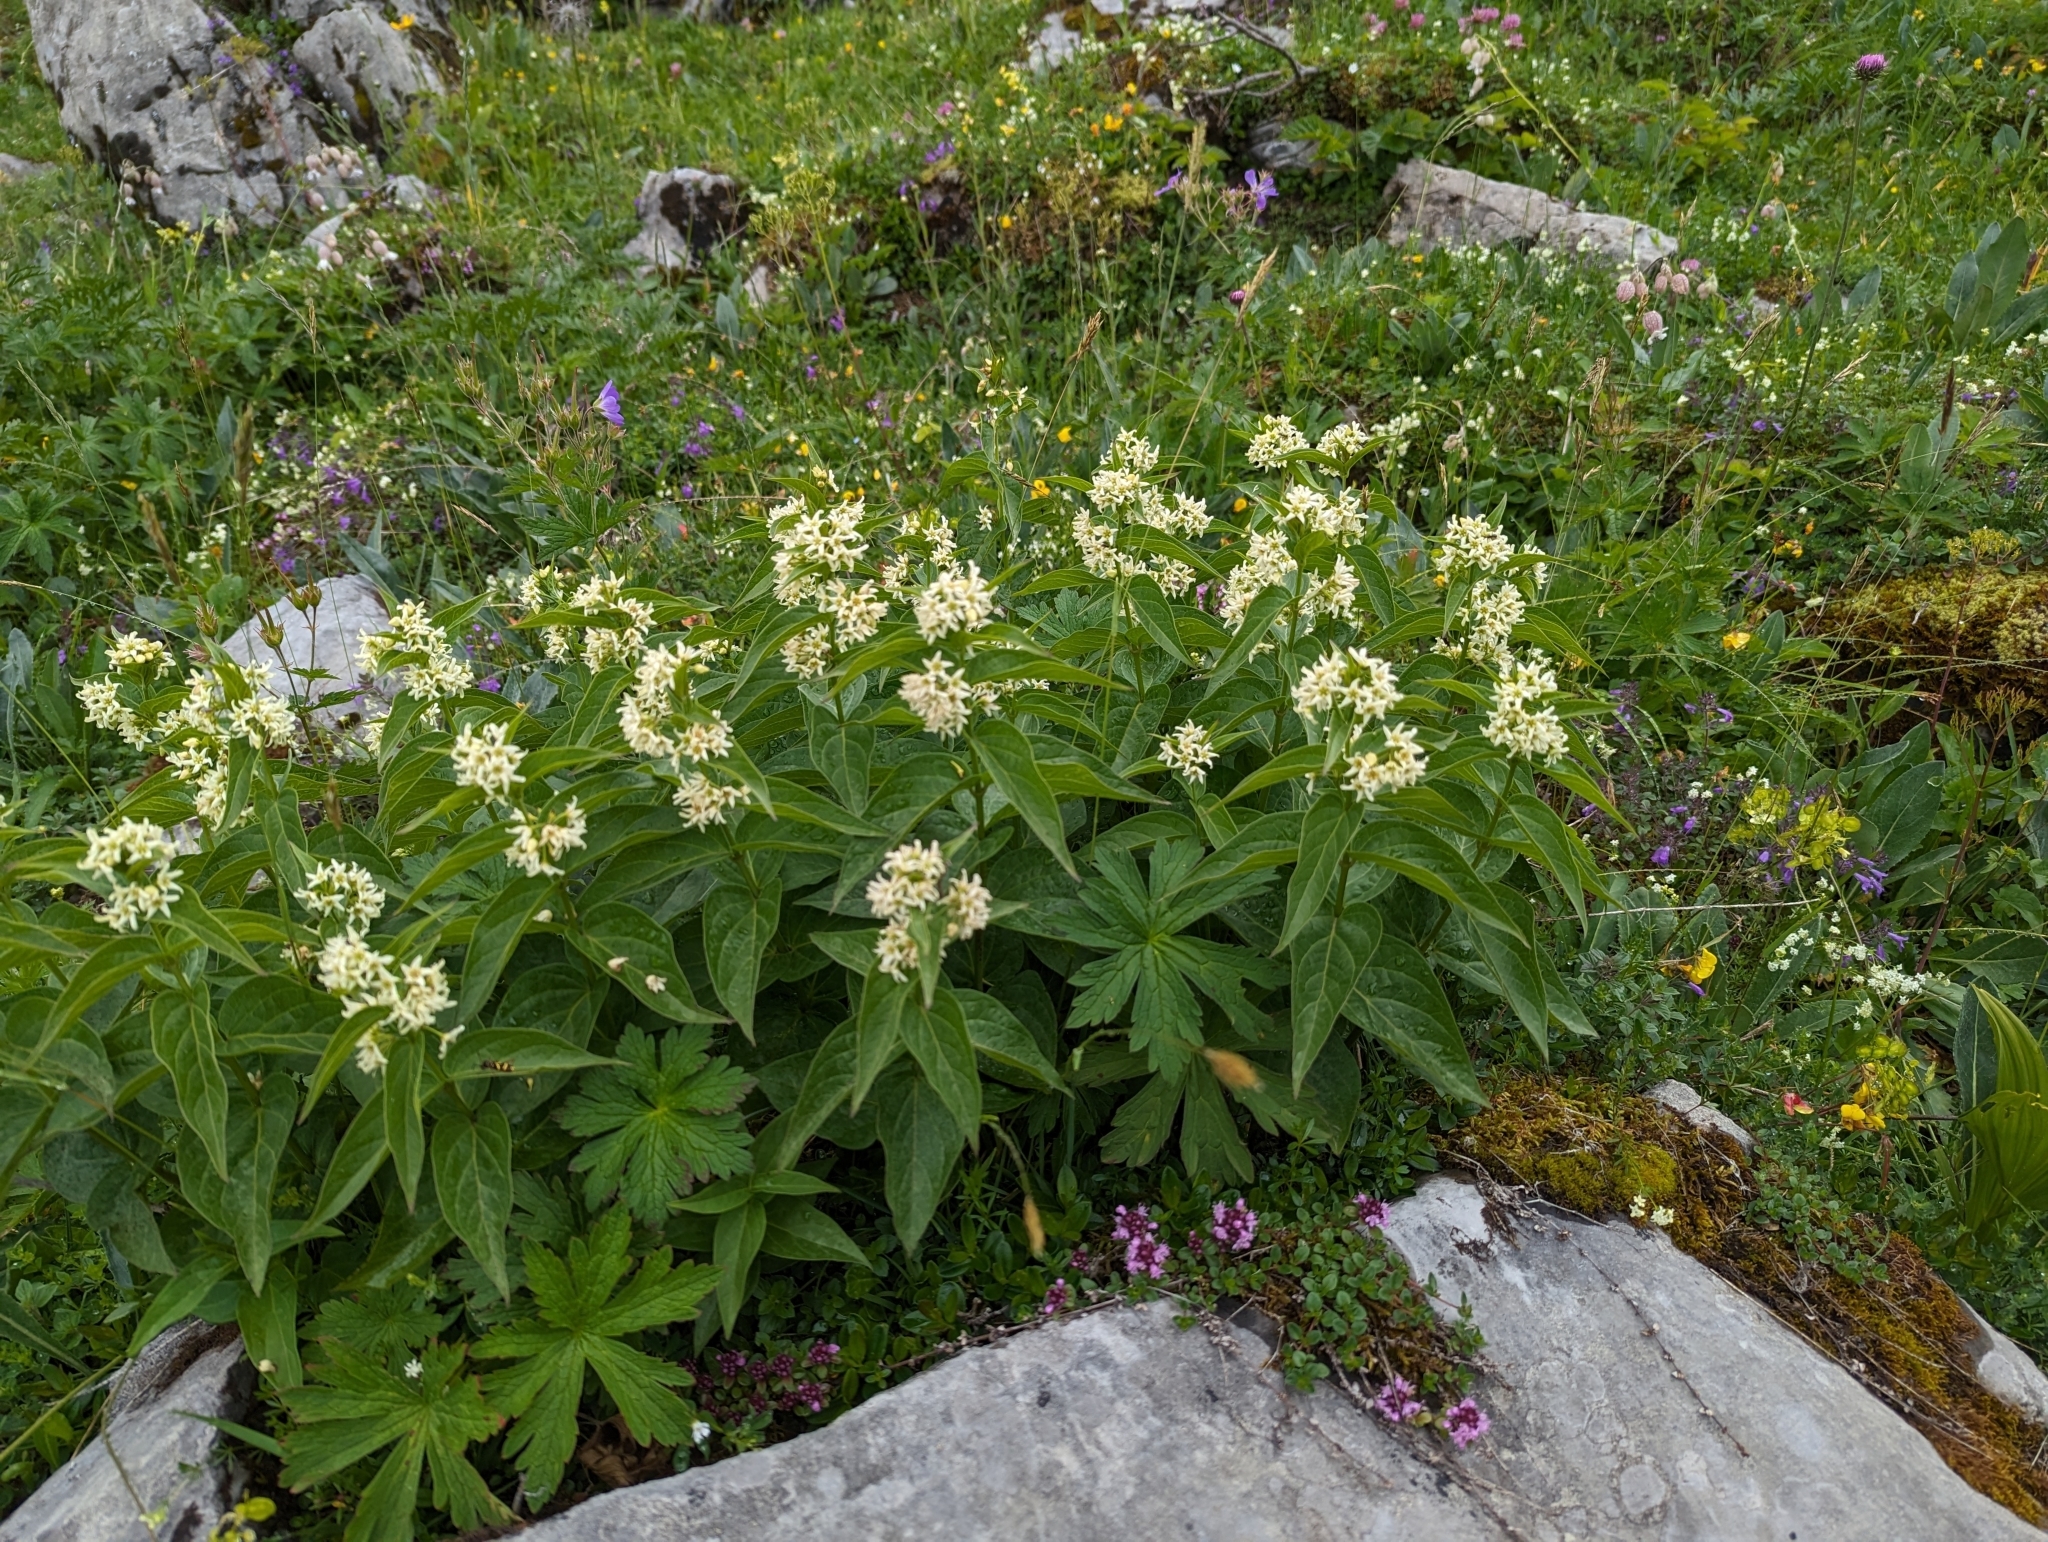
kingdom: Plantae
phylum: Tracheophyta
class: Magnoliopsida
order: Gentianales
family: Apocynaceae
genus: Vincetoxicum
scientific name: Vincetoxicum hirundinaria
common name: White swallowwort
